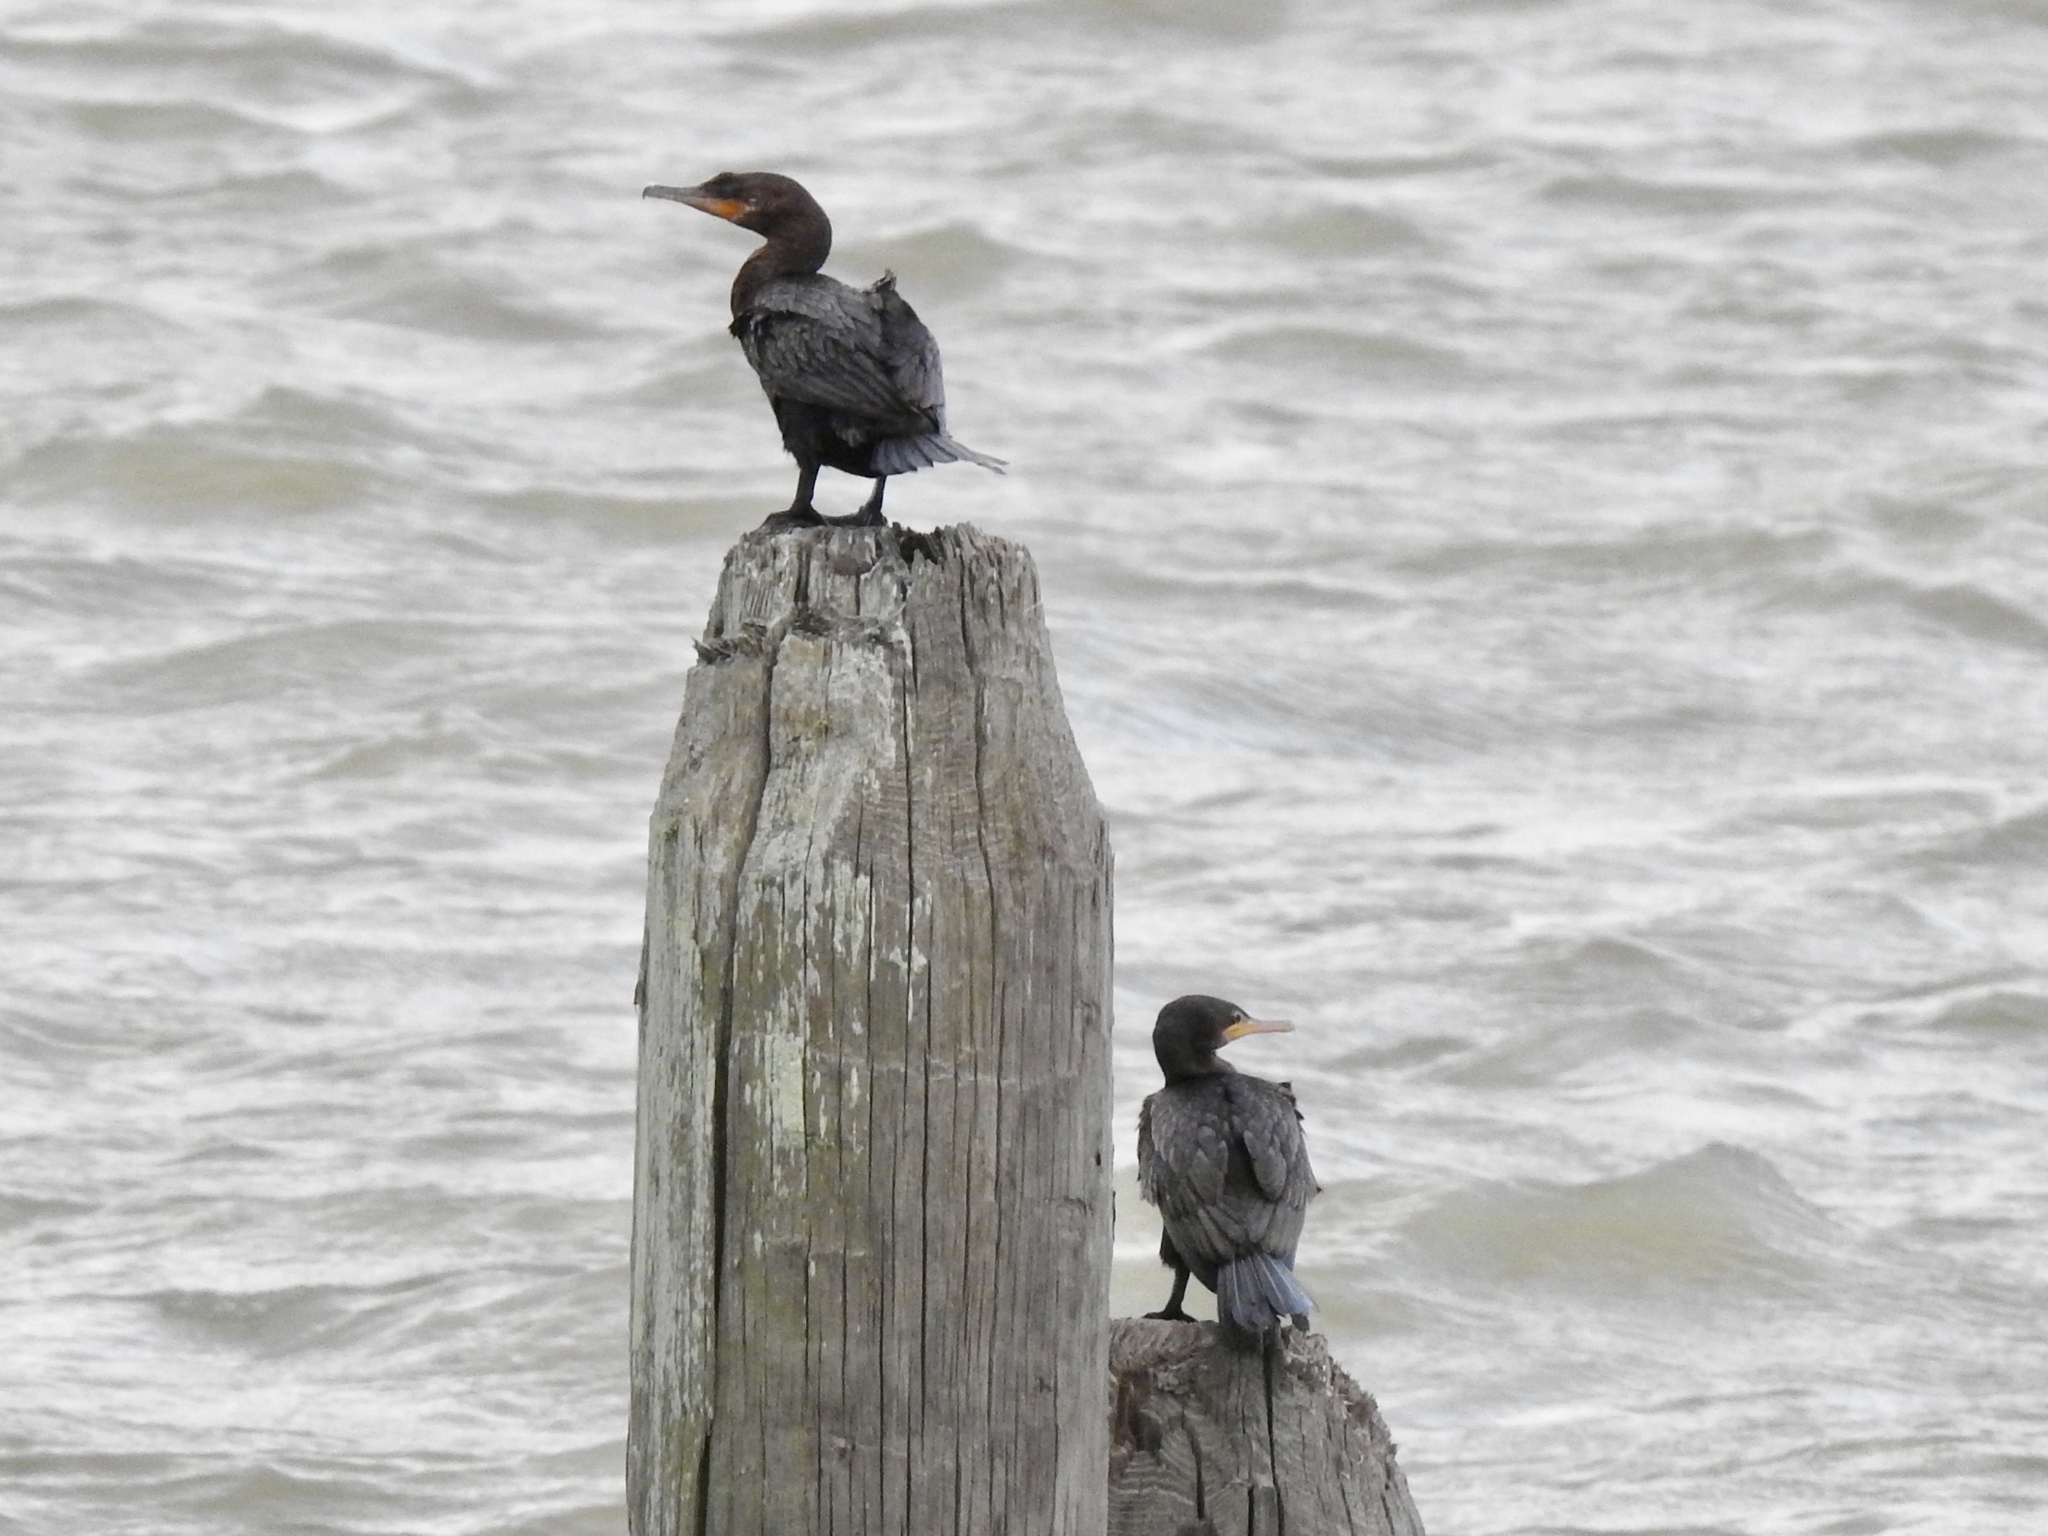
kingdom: Animalia
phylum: Chordata
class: Aves
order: Suliformes
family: Phalacrocoracidae
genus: Phalacrocorax
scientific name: Phalacrocorax brasilianus
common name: Neotropic cormorant
